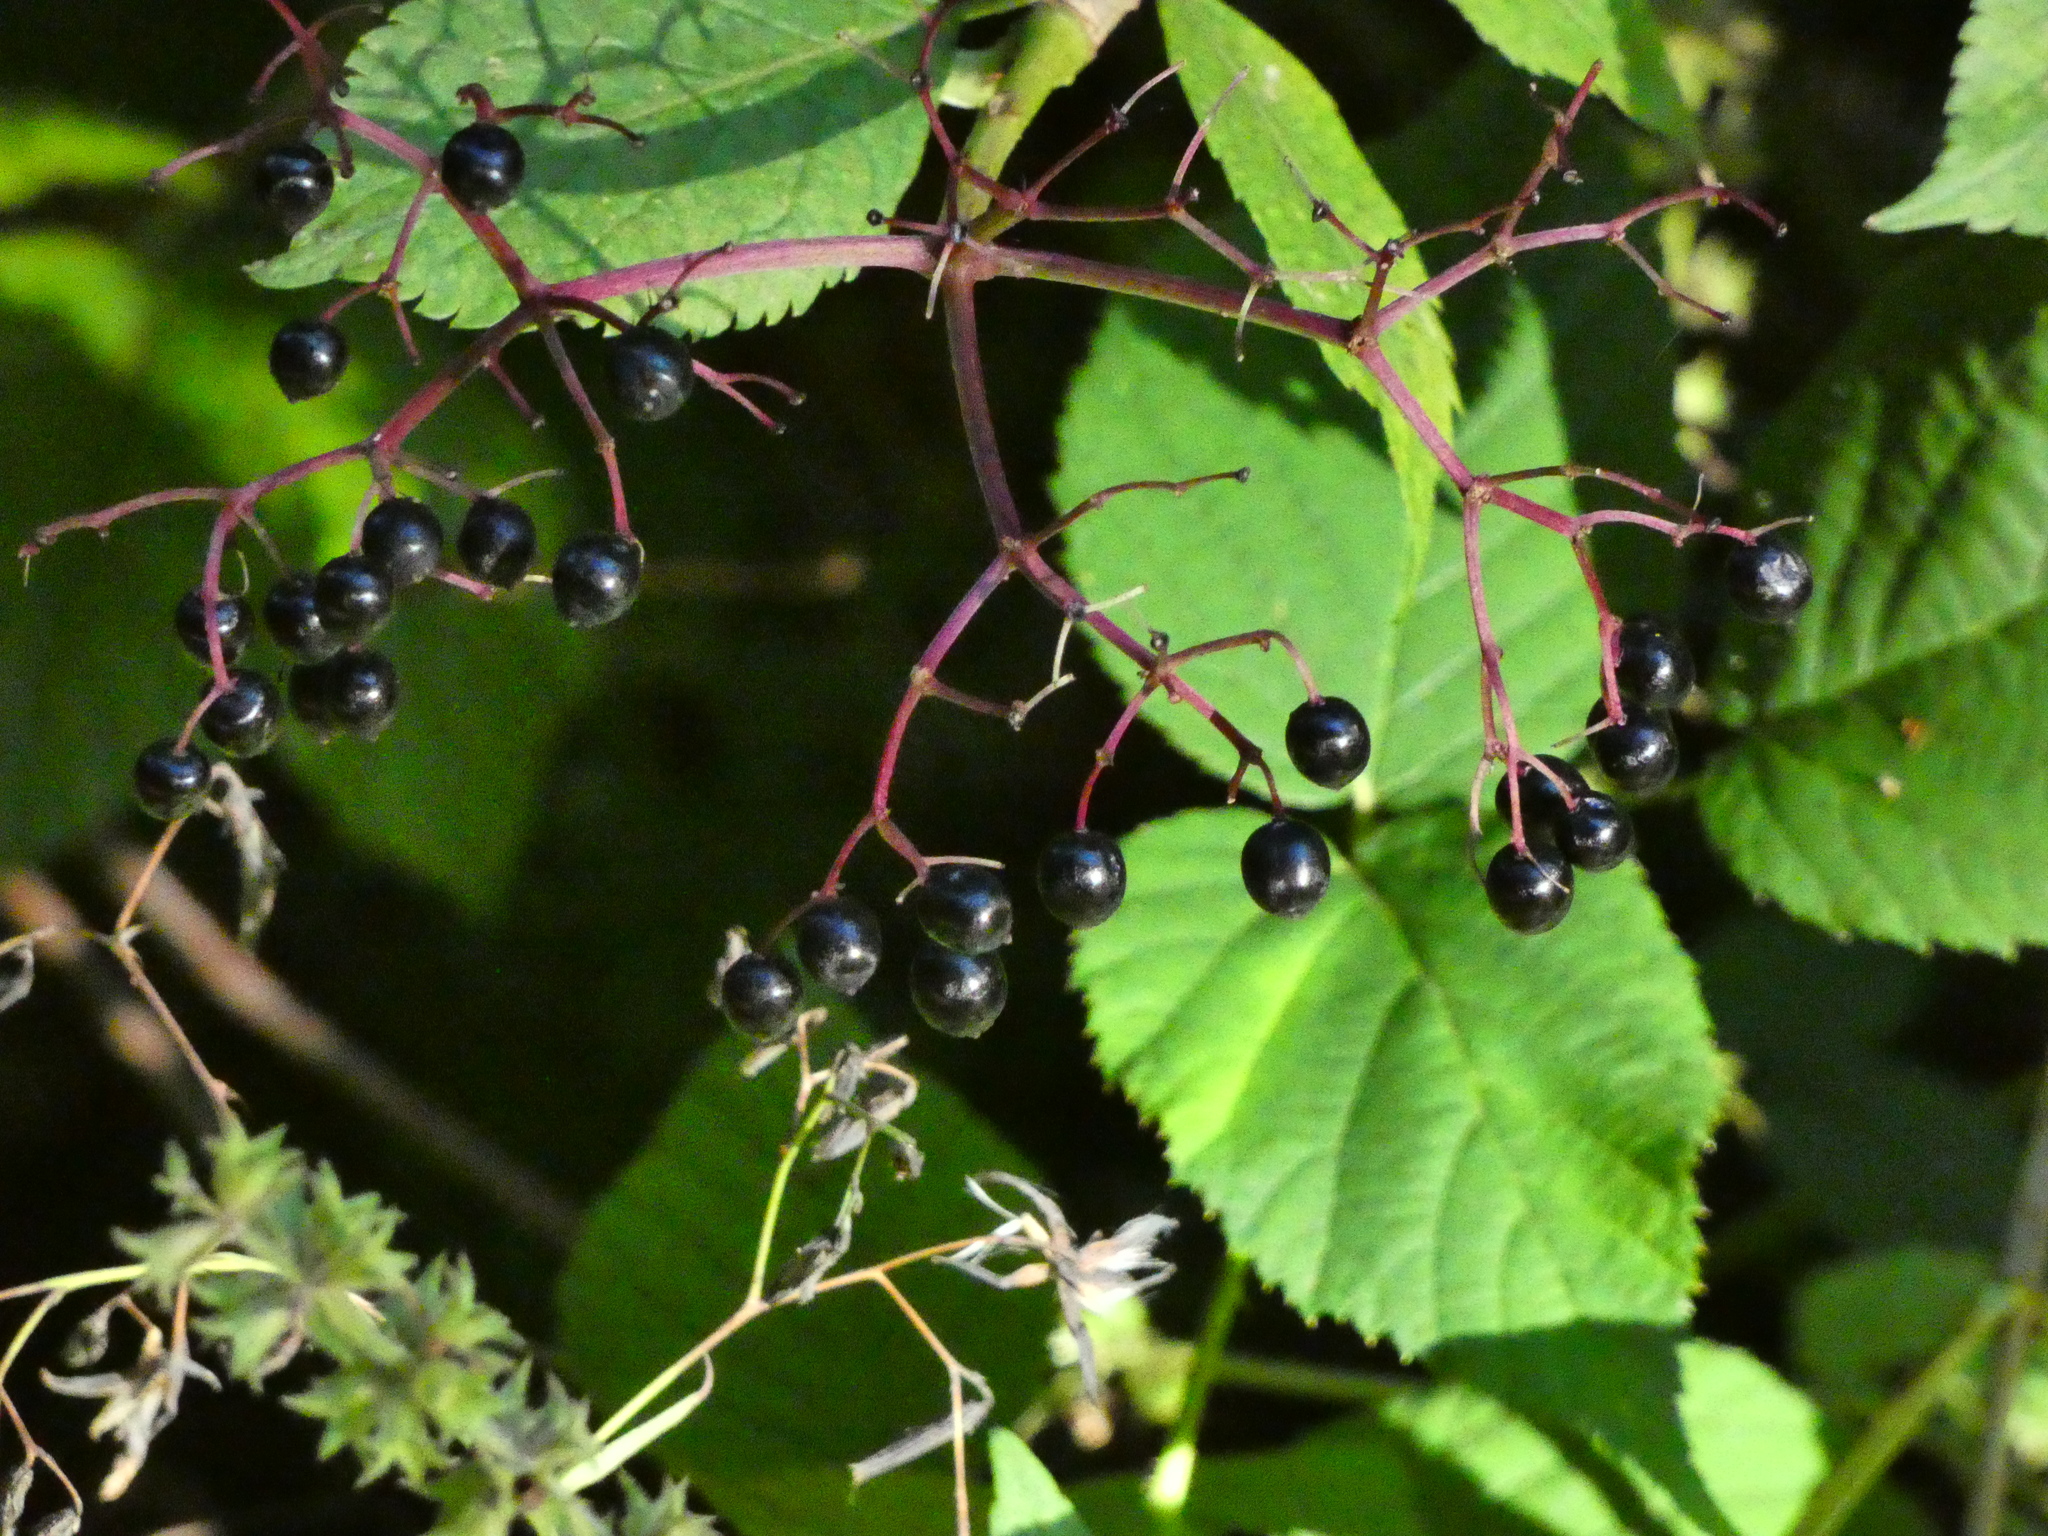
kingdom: Plantae
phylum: Tracheophyta
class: Magnoliopsida
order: Dipsacales
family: Viburnaceae
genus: Sambucus
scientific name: Sambucus nigra
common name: Elder
